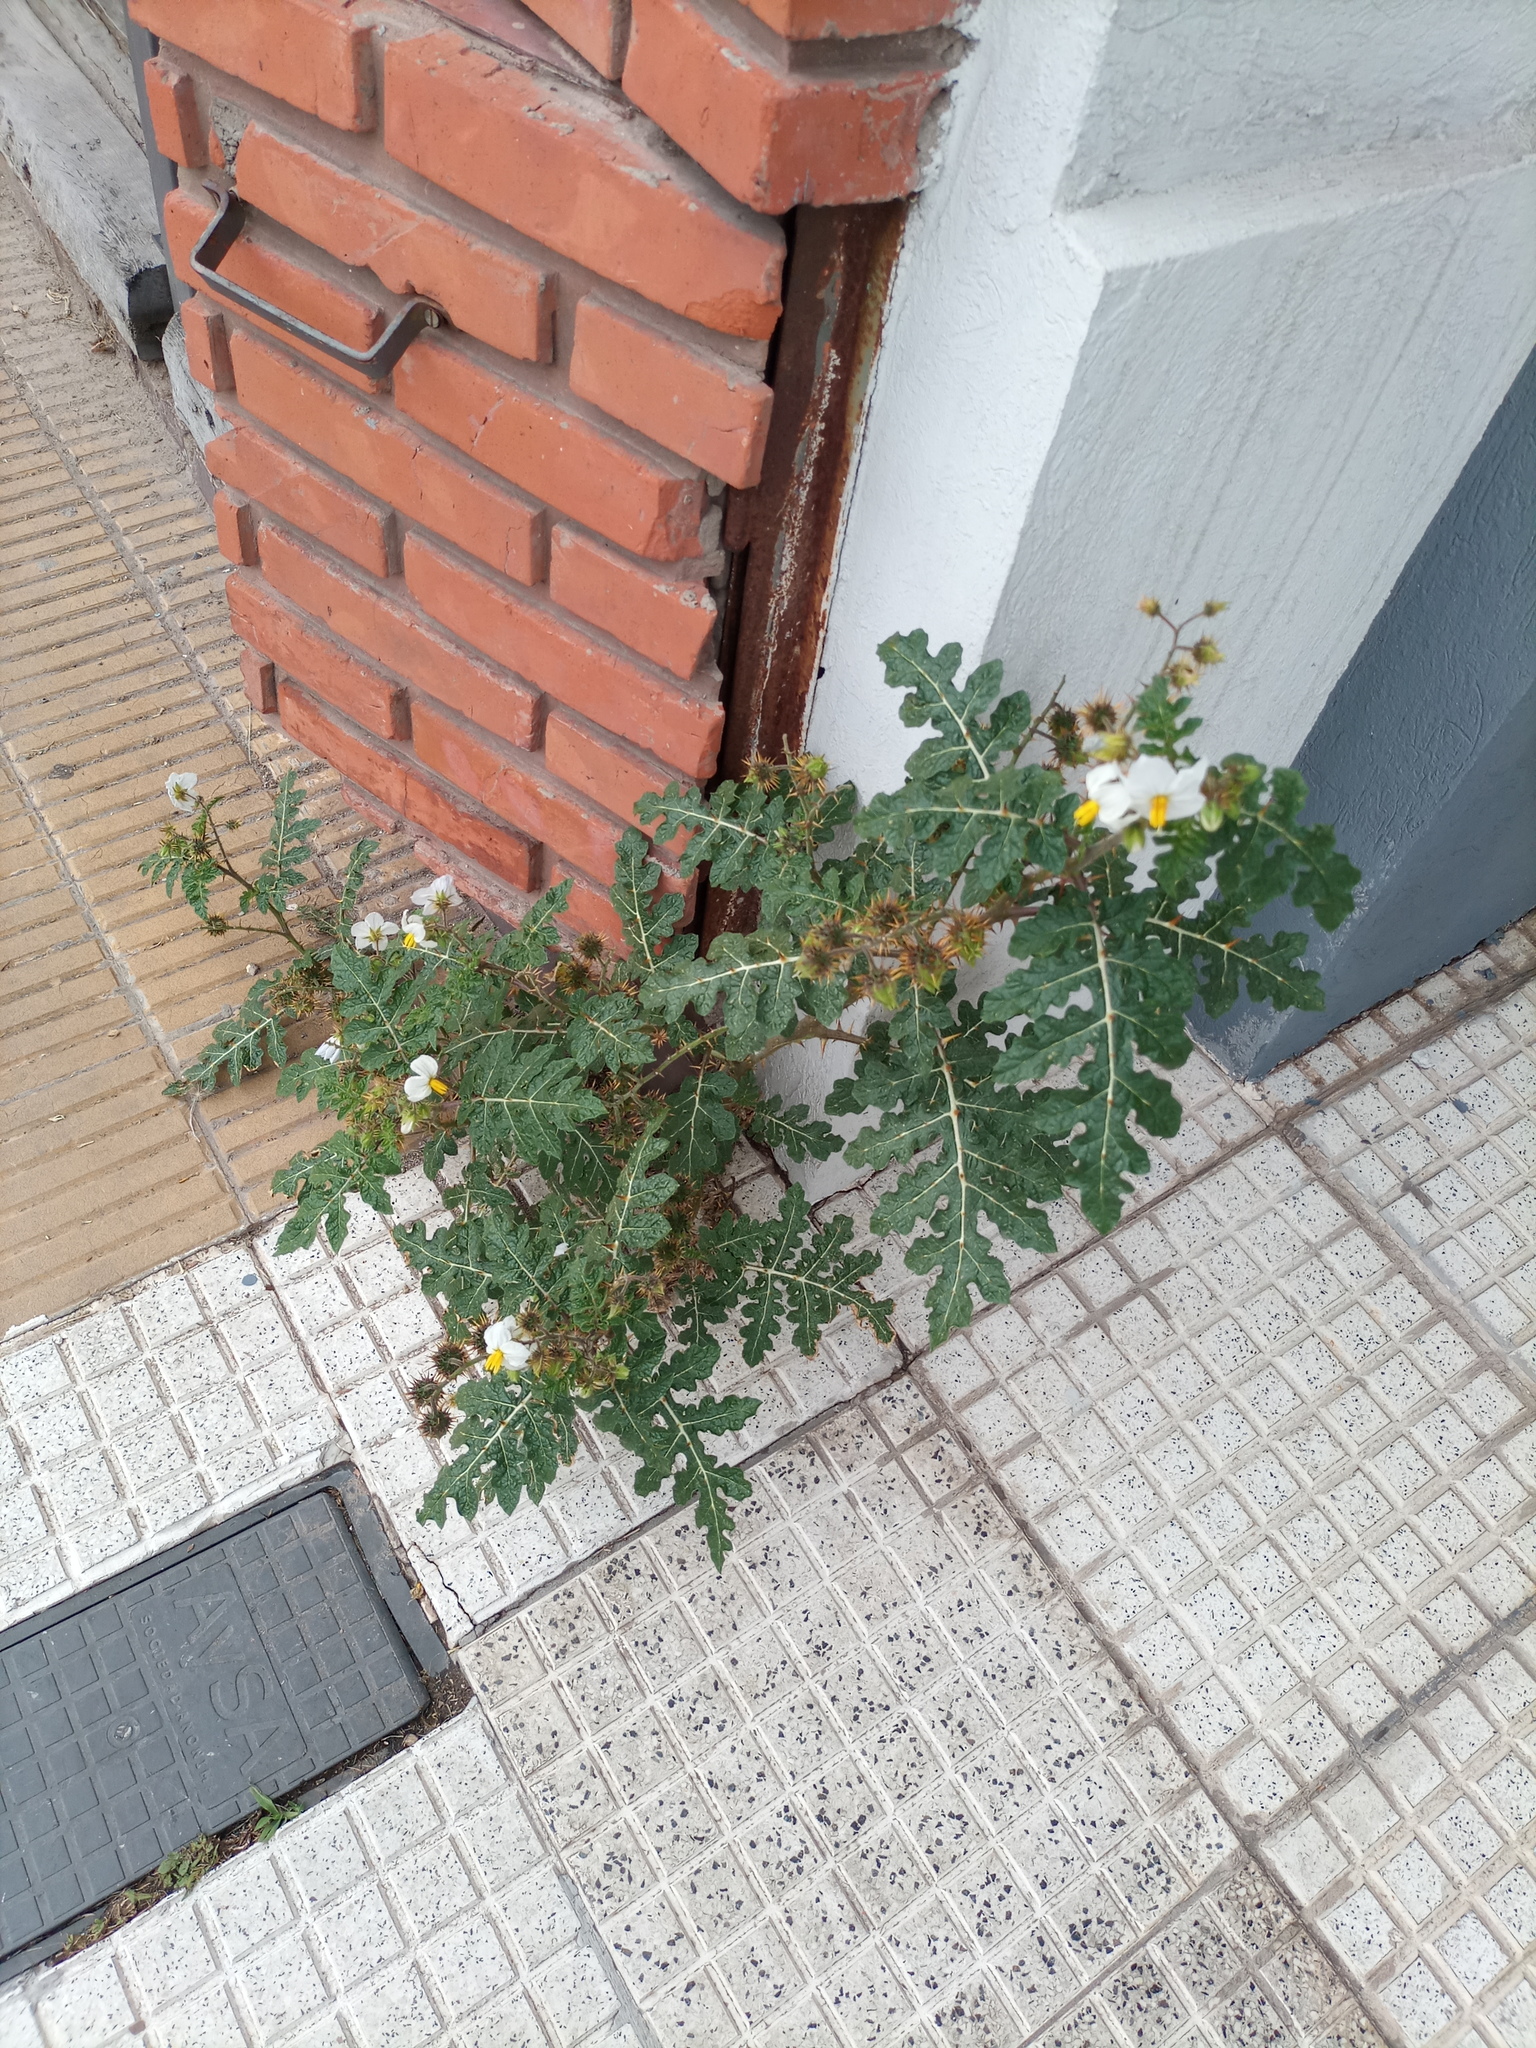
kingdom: Plantae
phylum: Tracheophyta
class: Magnoliopsida
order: Solanales
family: Solanaceae
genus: Solanum
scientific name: Solanum sisymbriifolium
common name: Red buffalo-bur
